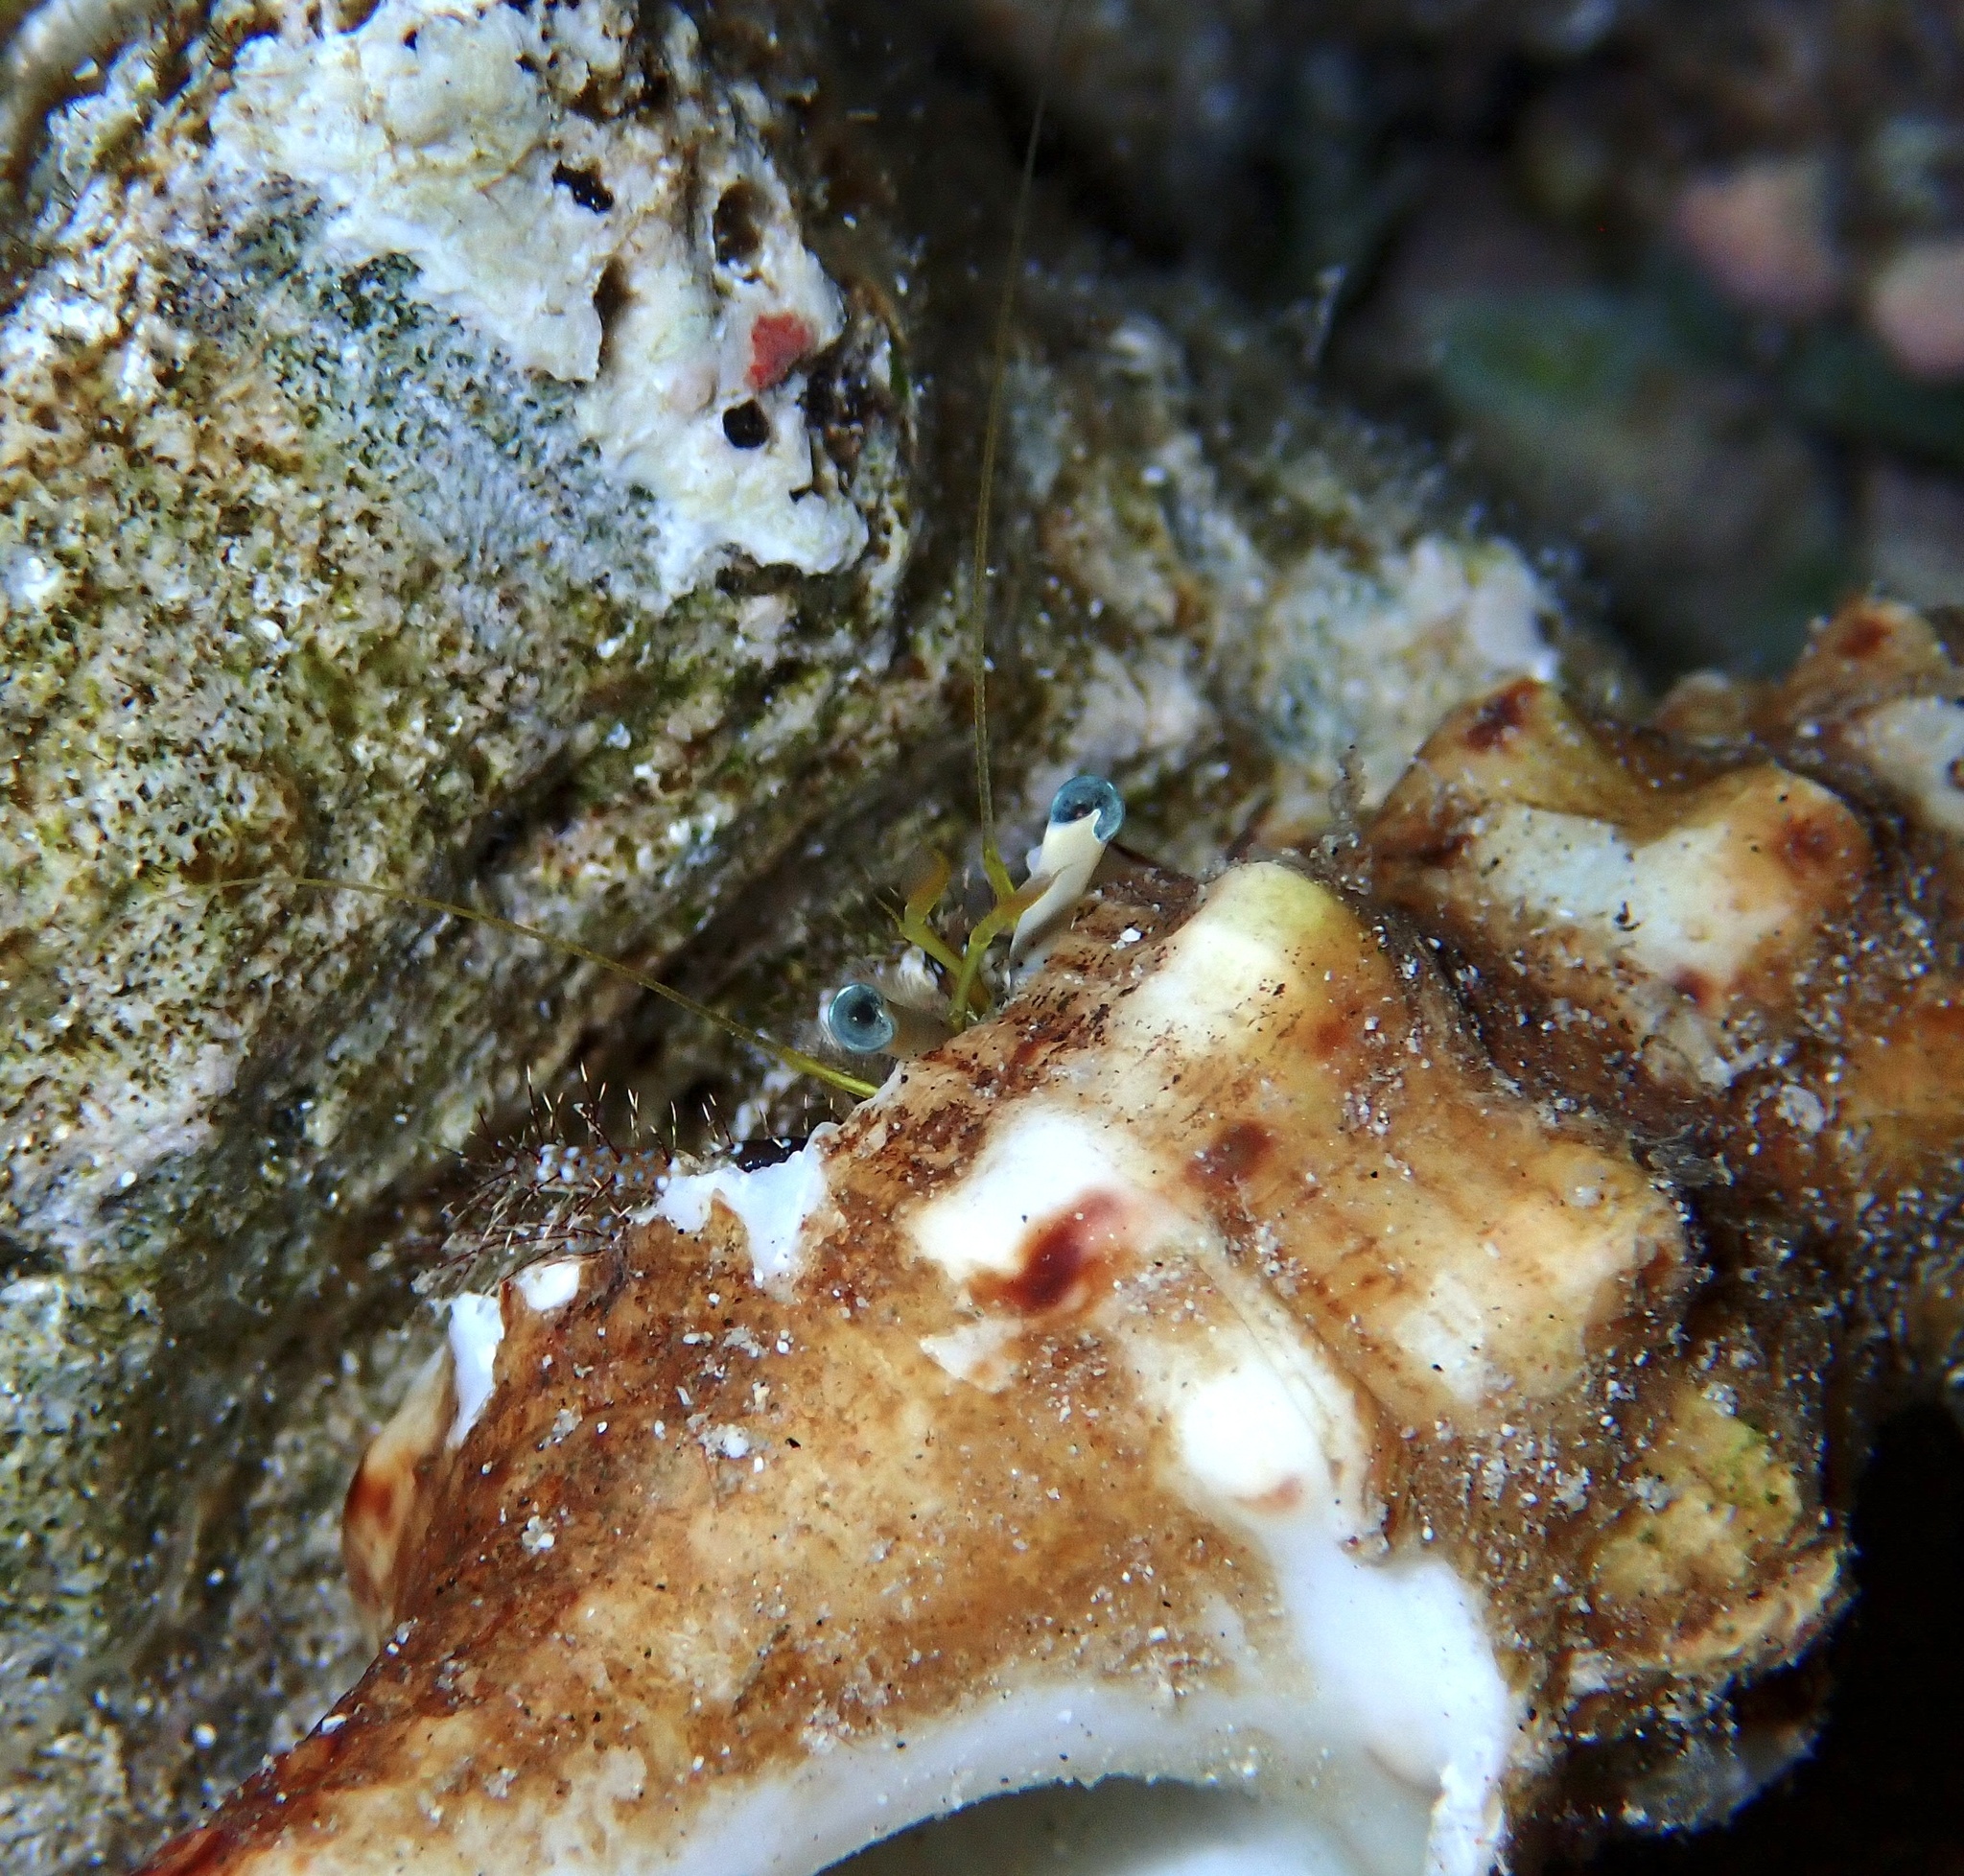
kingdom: Animalia
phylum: Arthropoda
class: Malacostraca
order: Decapoda
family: Diogenidae
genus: Dardanus
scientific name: Dardanus lagopodes
